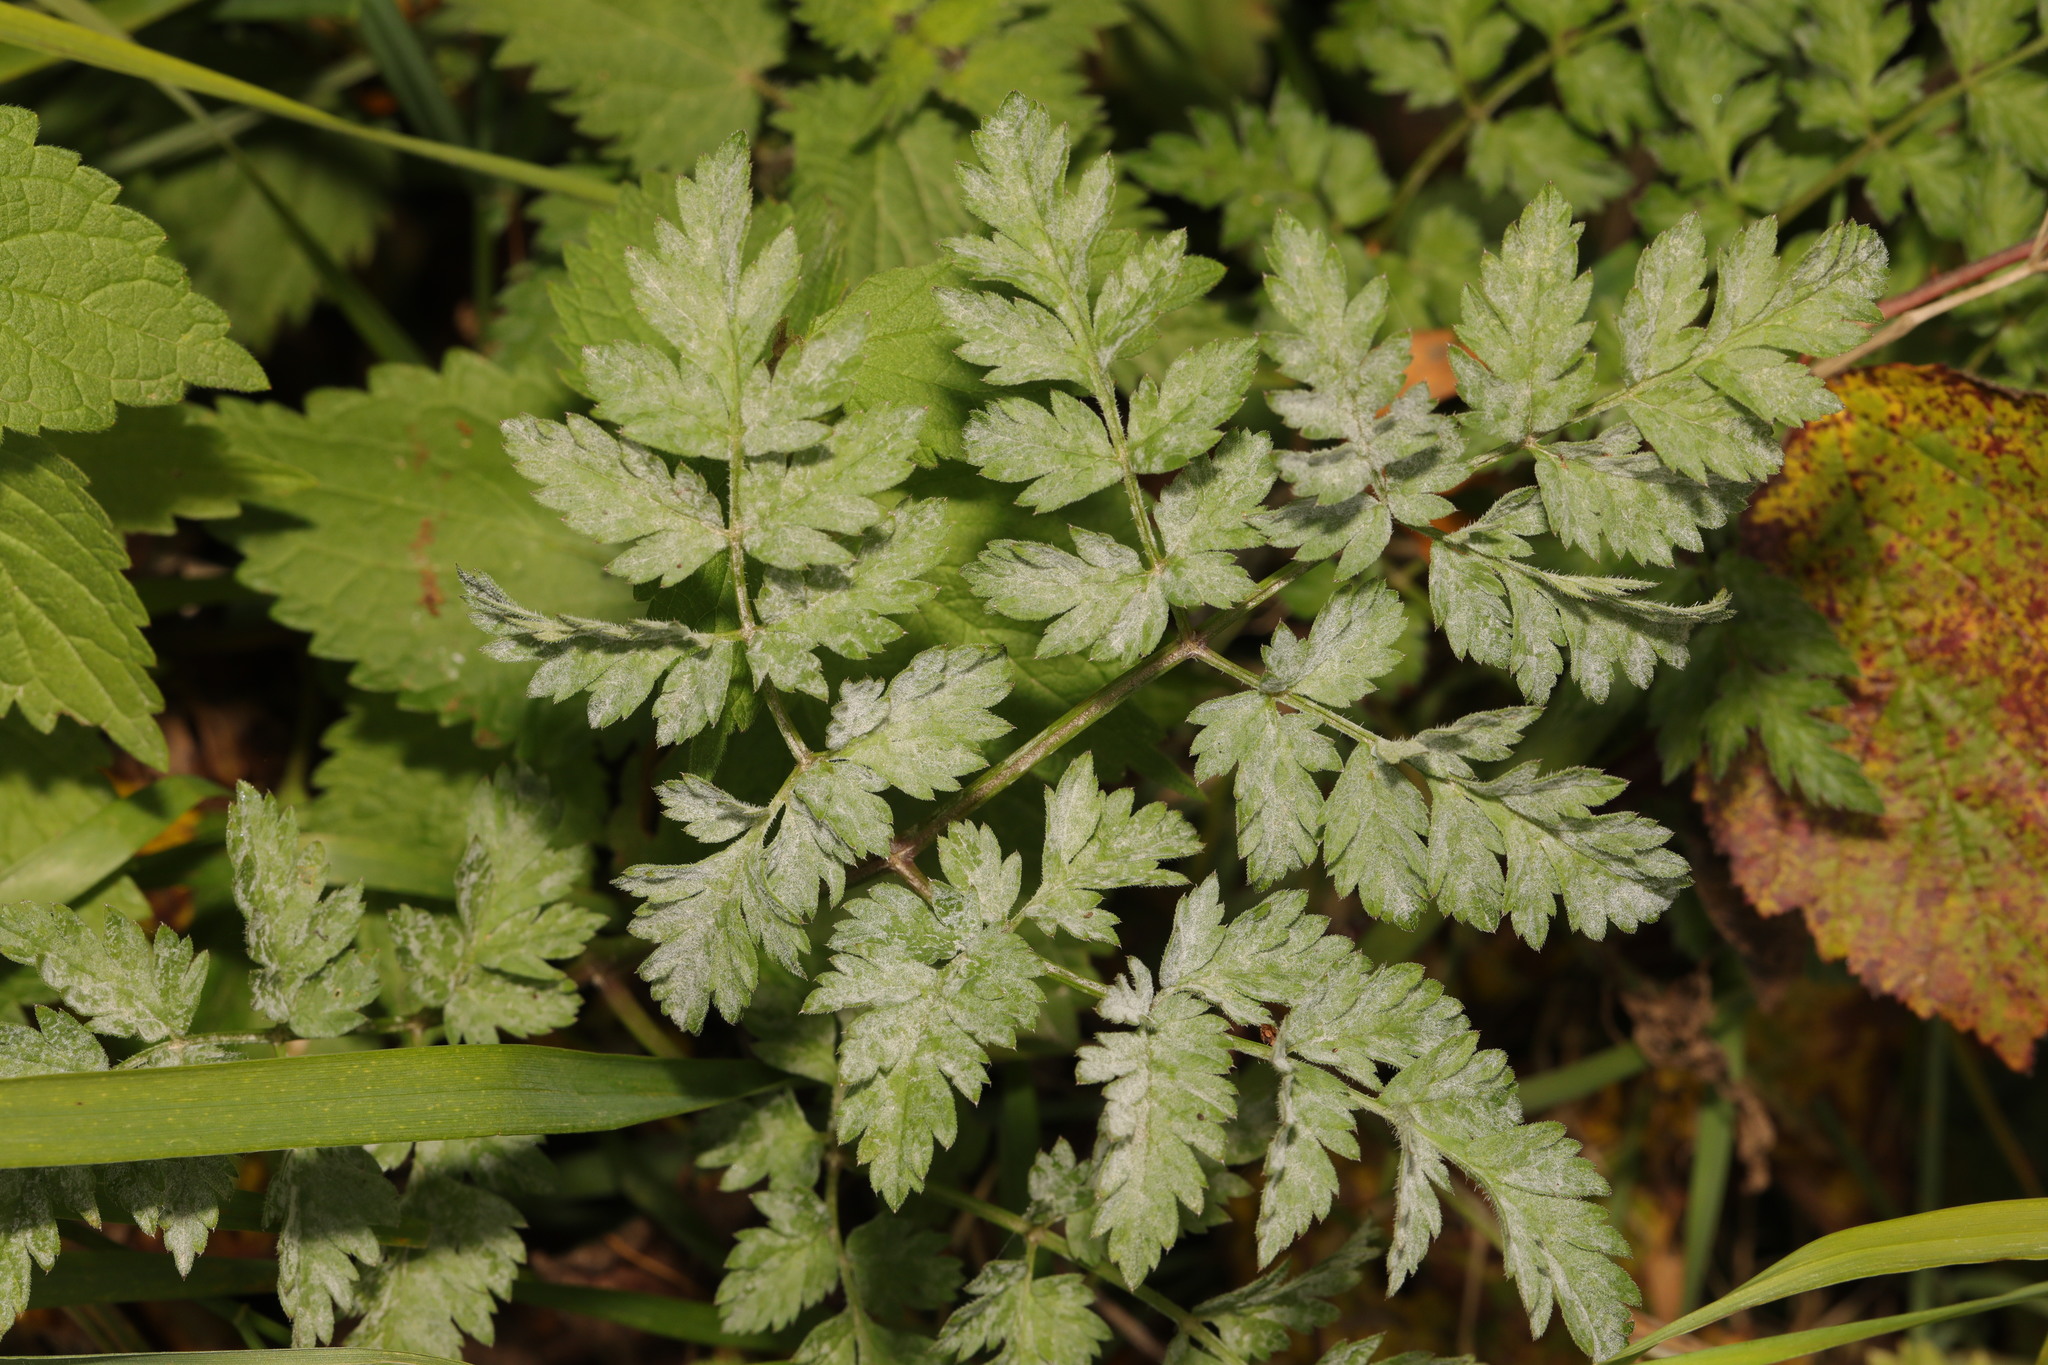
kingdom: Fungi
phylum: Ascomycota
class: Leotiomycetes
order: Helotiales
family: Erysiphaceae
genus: Erysiphe
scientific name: Erysiphe heraclei
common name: Umbellifer mildew
